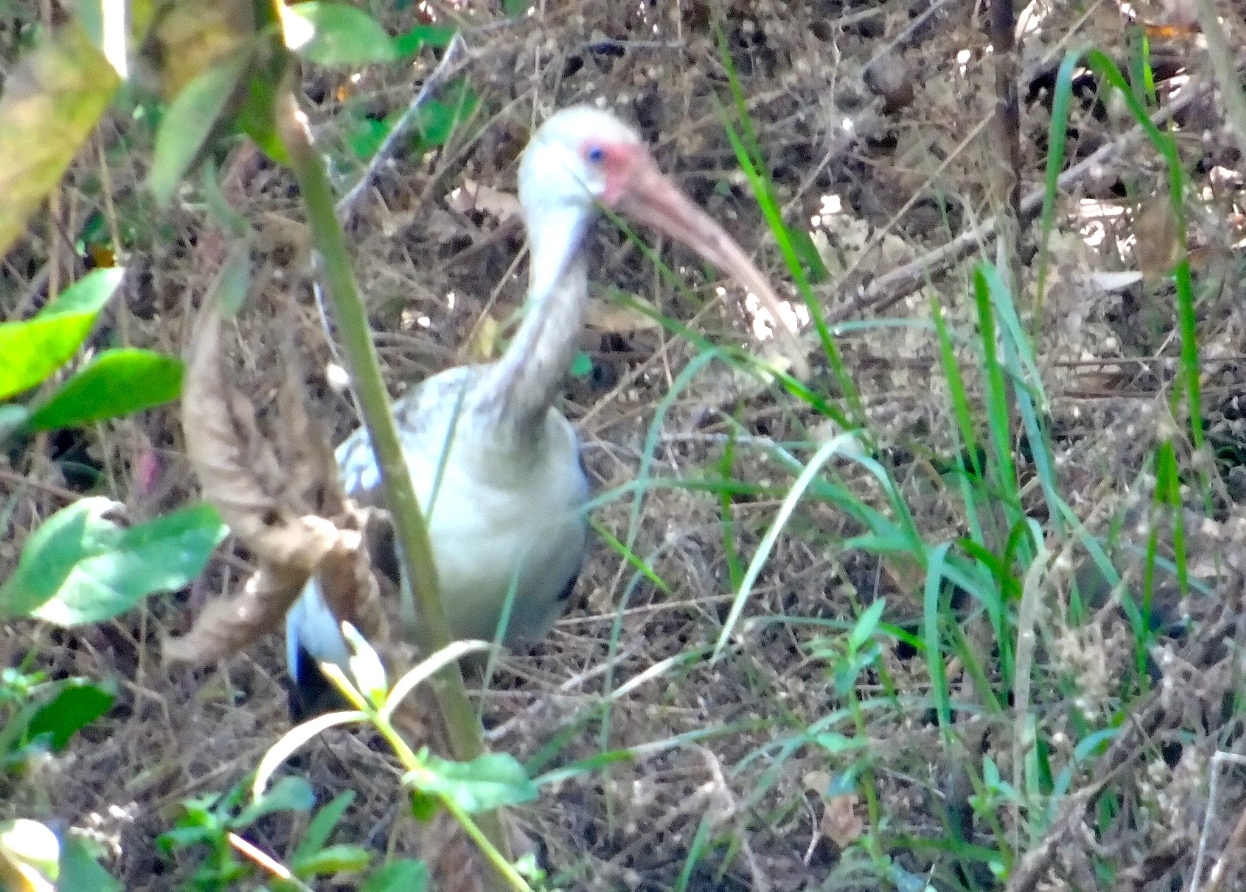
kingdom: Animalia
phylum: Chordata
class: Aves
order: Pelecaniformes
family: Threskiornithidae
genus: Eudocimus
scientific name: Eudocimus albus
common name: White ibis
